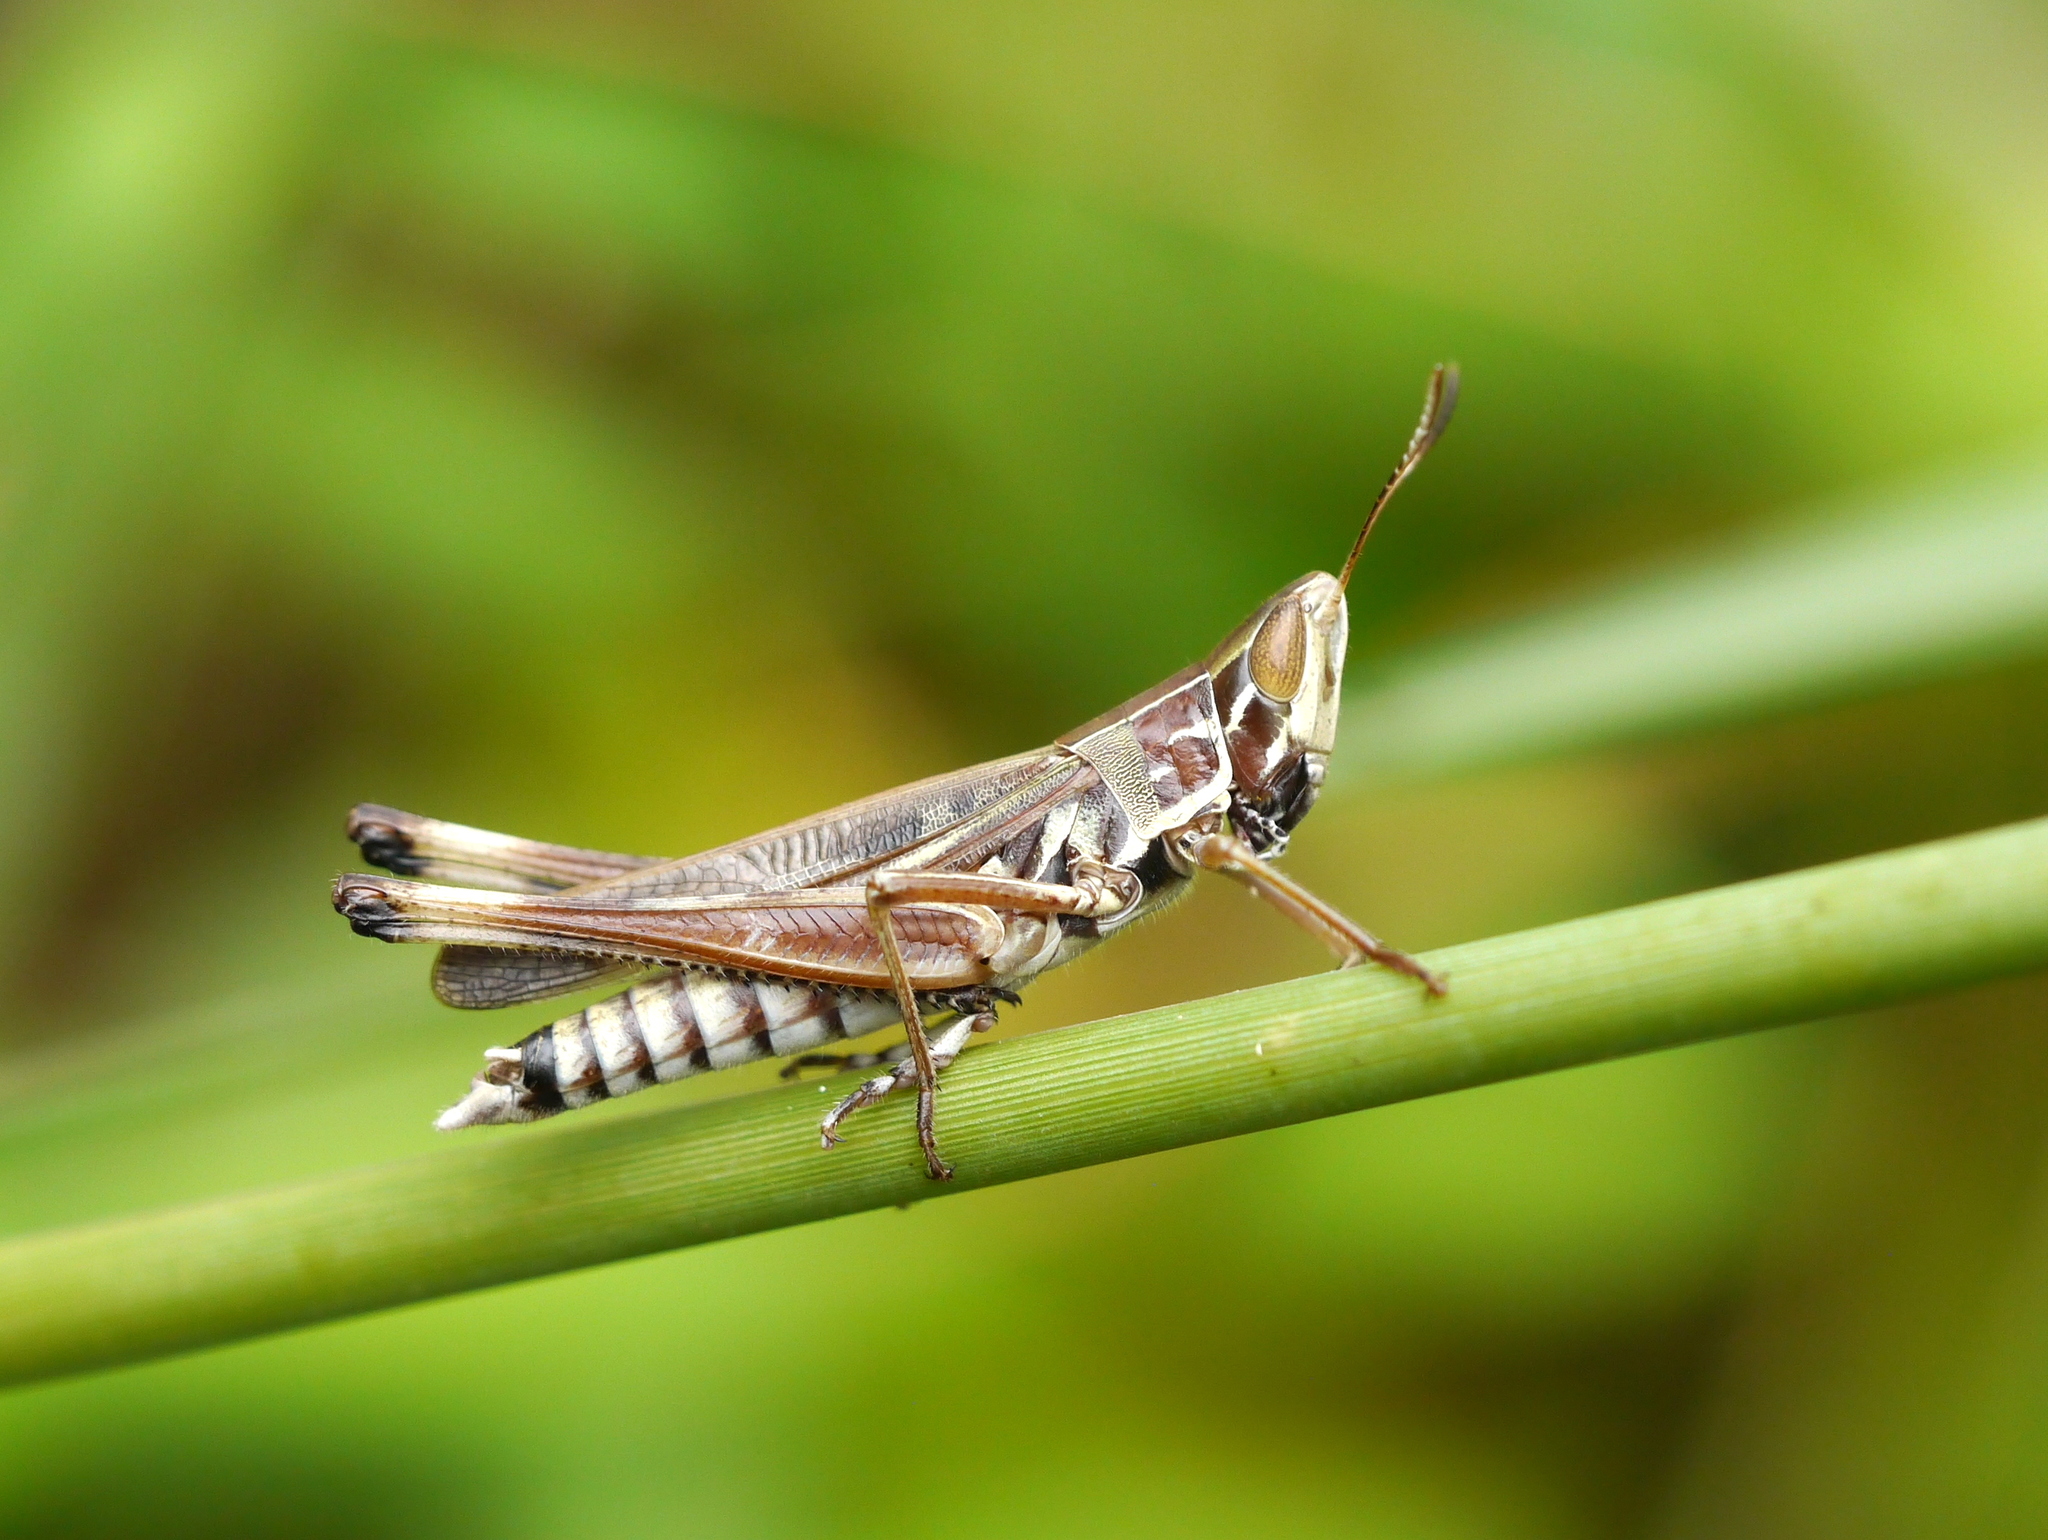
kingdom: Animalia
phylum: Arthropoda
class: Insecta
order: Orthoptera
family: Acrididae
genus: Syrbula
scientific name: Syrbula admirabilis
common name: Handsome grasshopper
